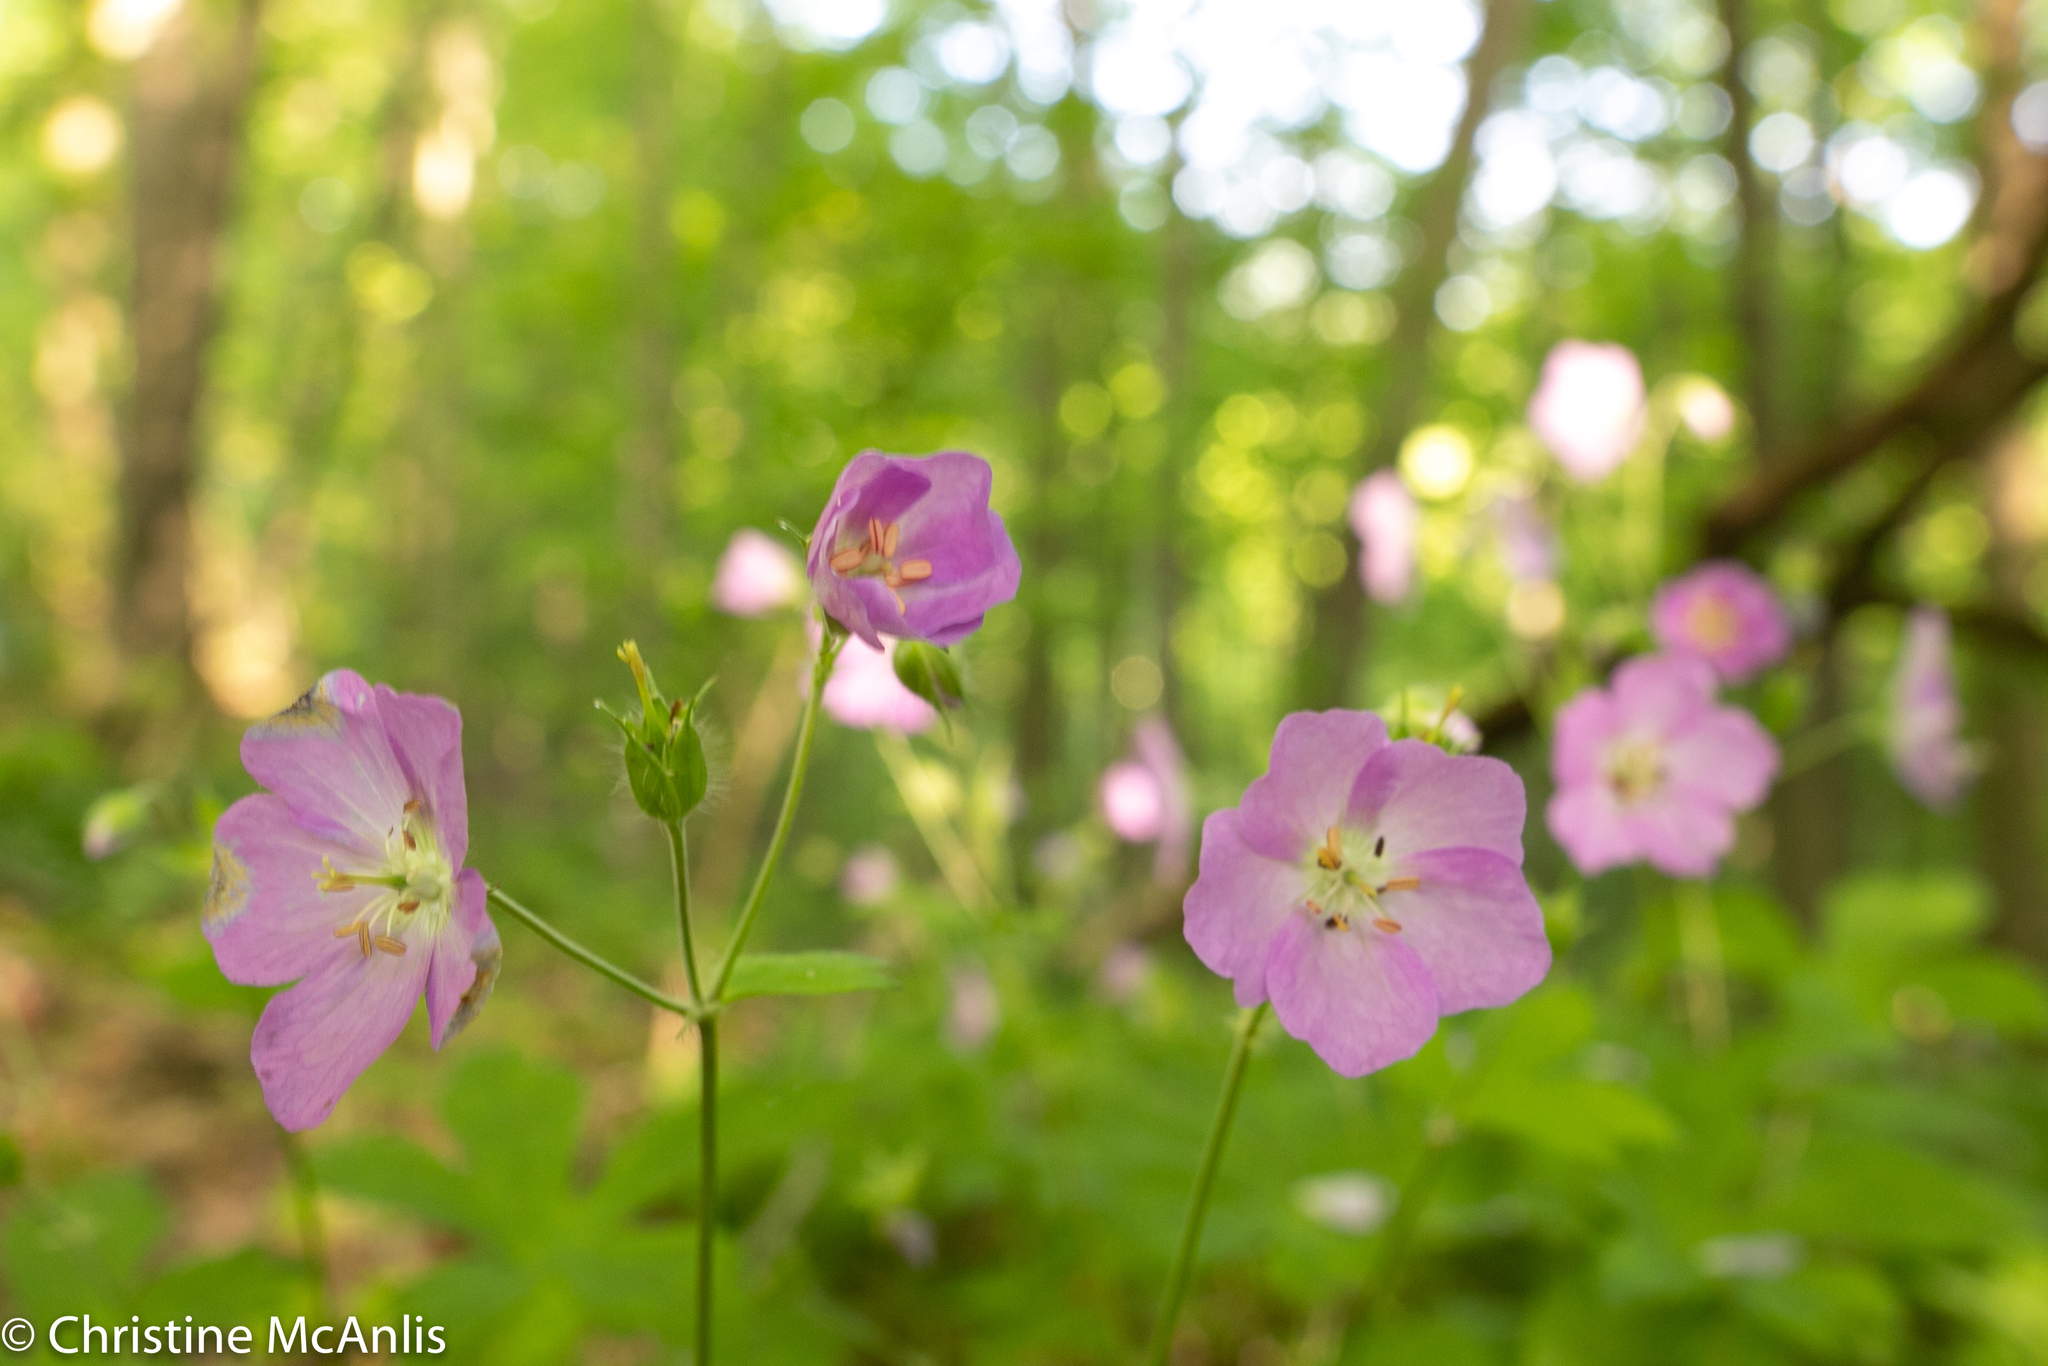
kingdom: Plantae
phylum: Tracheophyta
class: Magnoliopsida
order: Geraniales
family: Geraniaceae
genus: Geranium
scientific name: Geranium maculatum
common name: Spotted geranium
